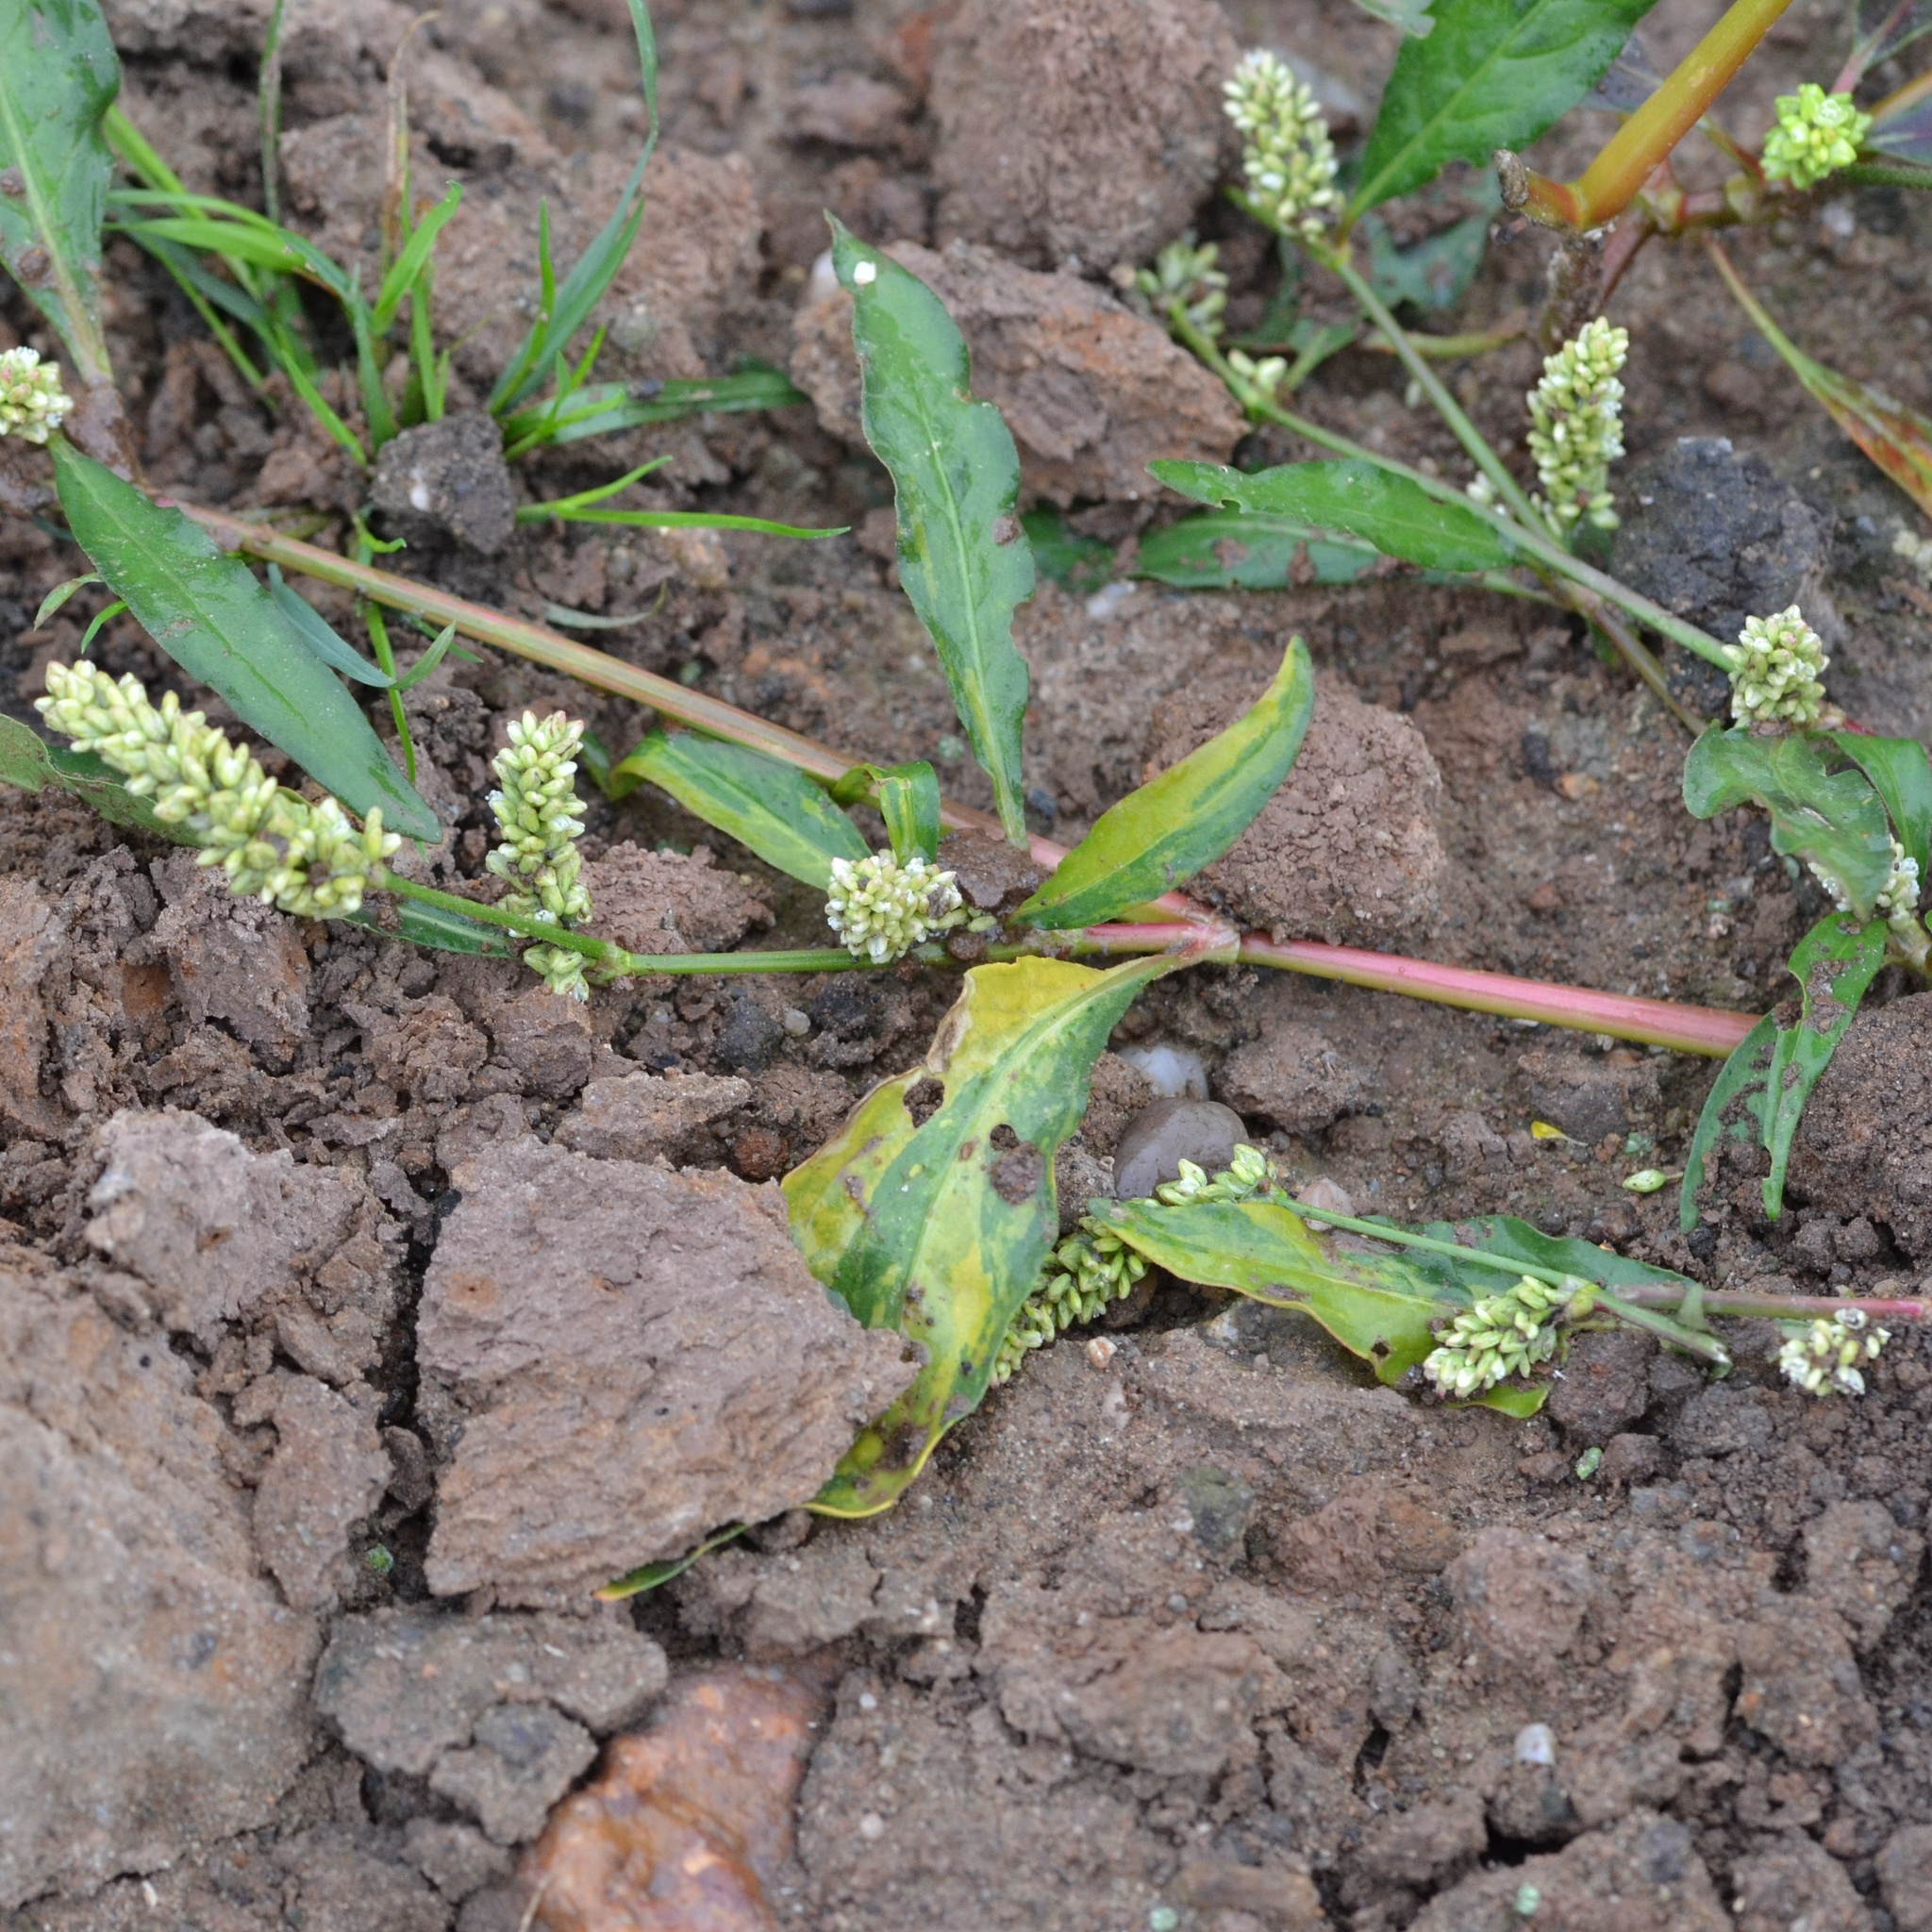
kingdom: Plantae
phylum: Tracheophyta
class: Magnoliopsida
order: Caryophyllales
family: Polygonaceae
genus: Persicaria
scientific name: Persicaria lapathifolia
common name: Curlytop knotweed
